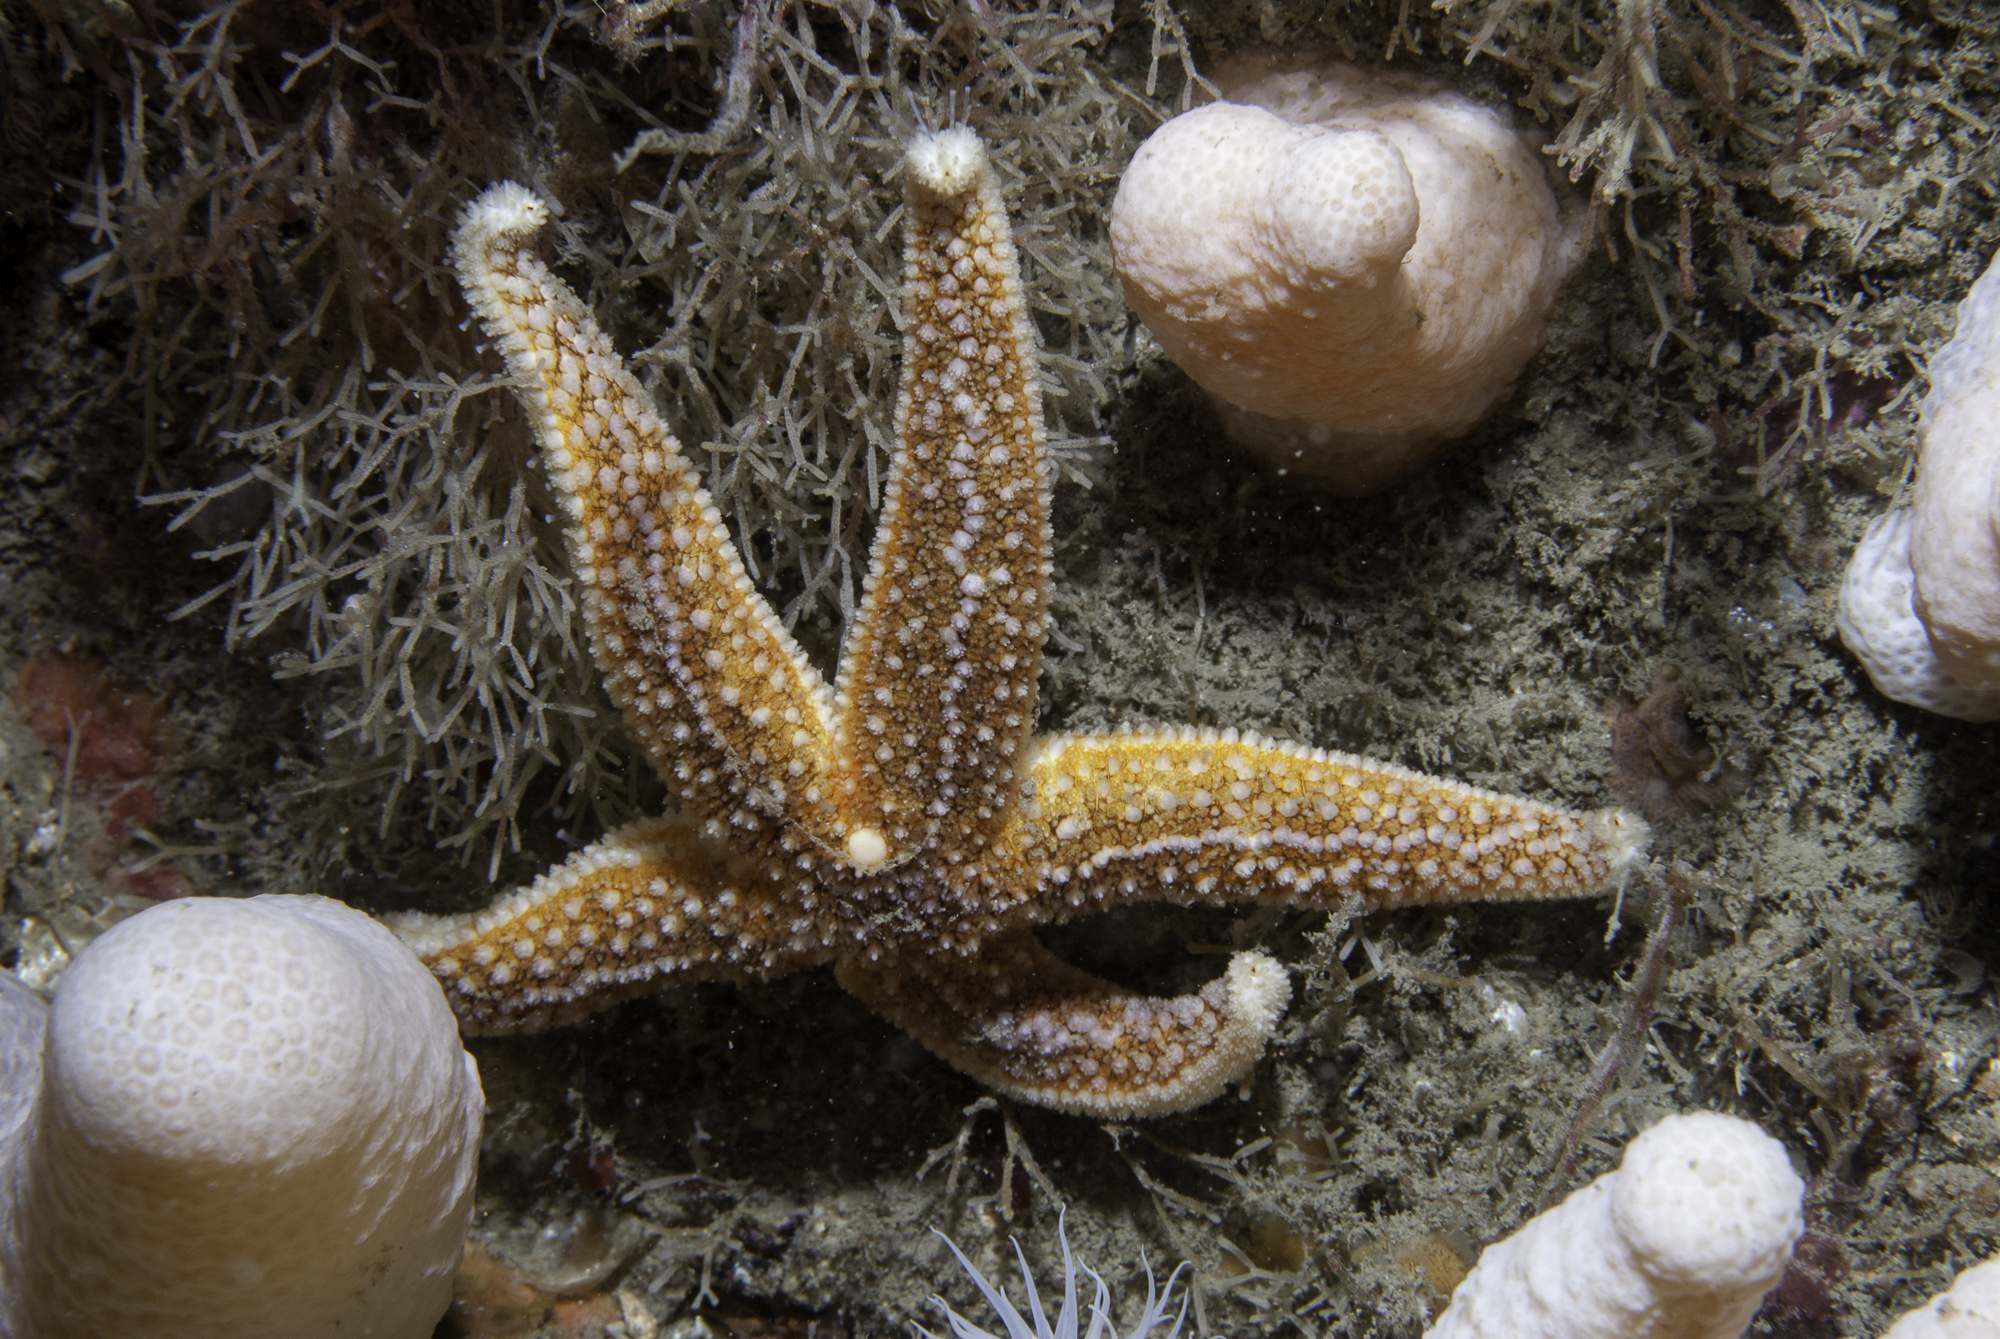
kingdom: Animalia
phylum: Echinodermata
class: Asteroidea
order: Forcipulatida
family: Asteriidae
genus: Asterias
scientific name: Asterias rubens
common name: Common starfish
